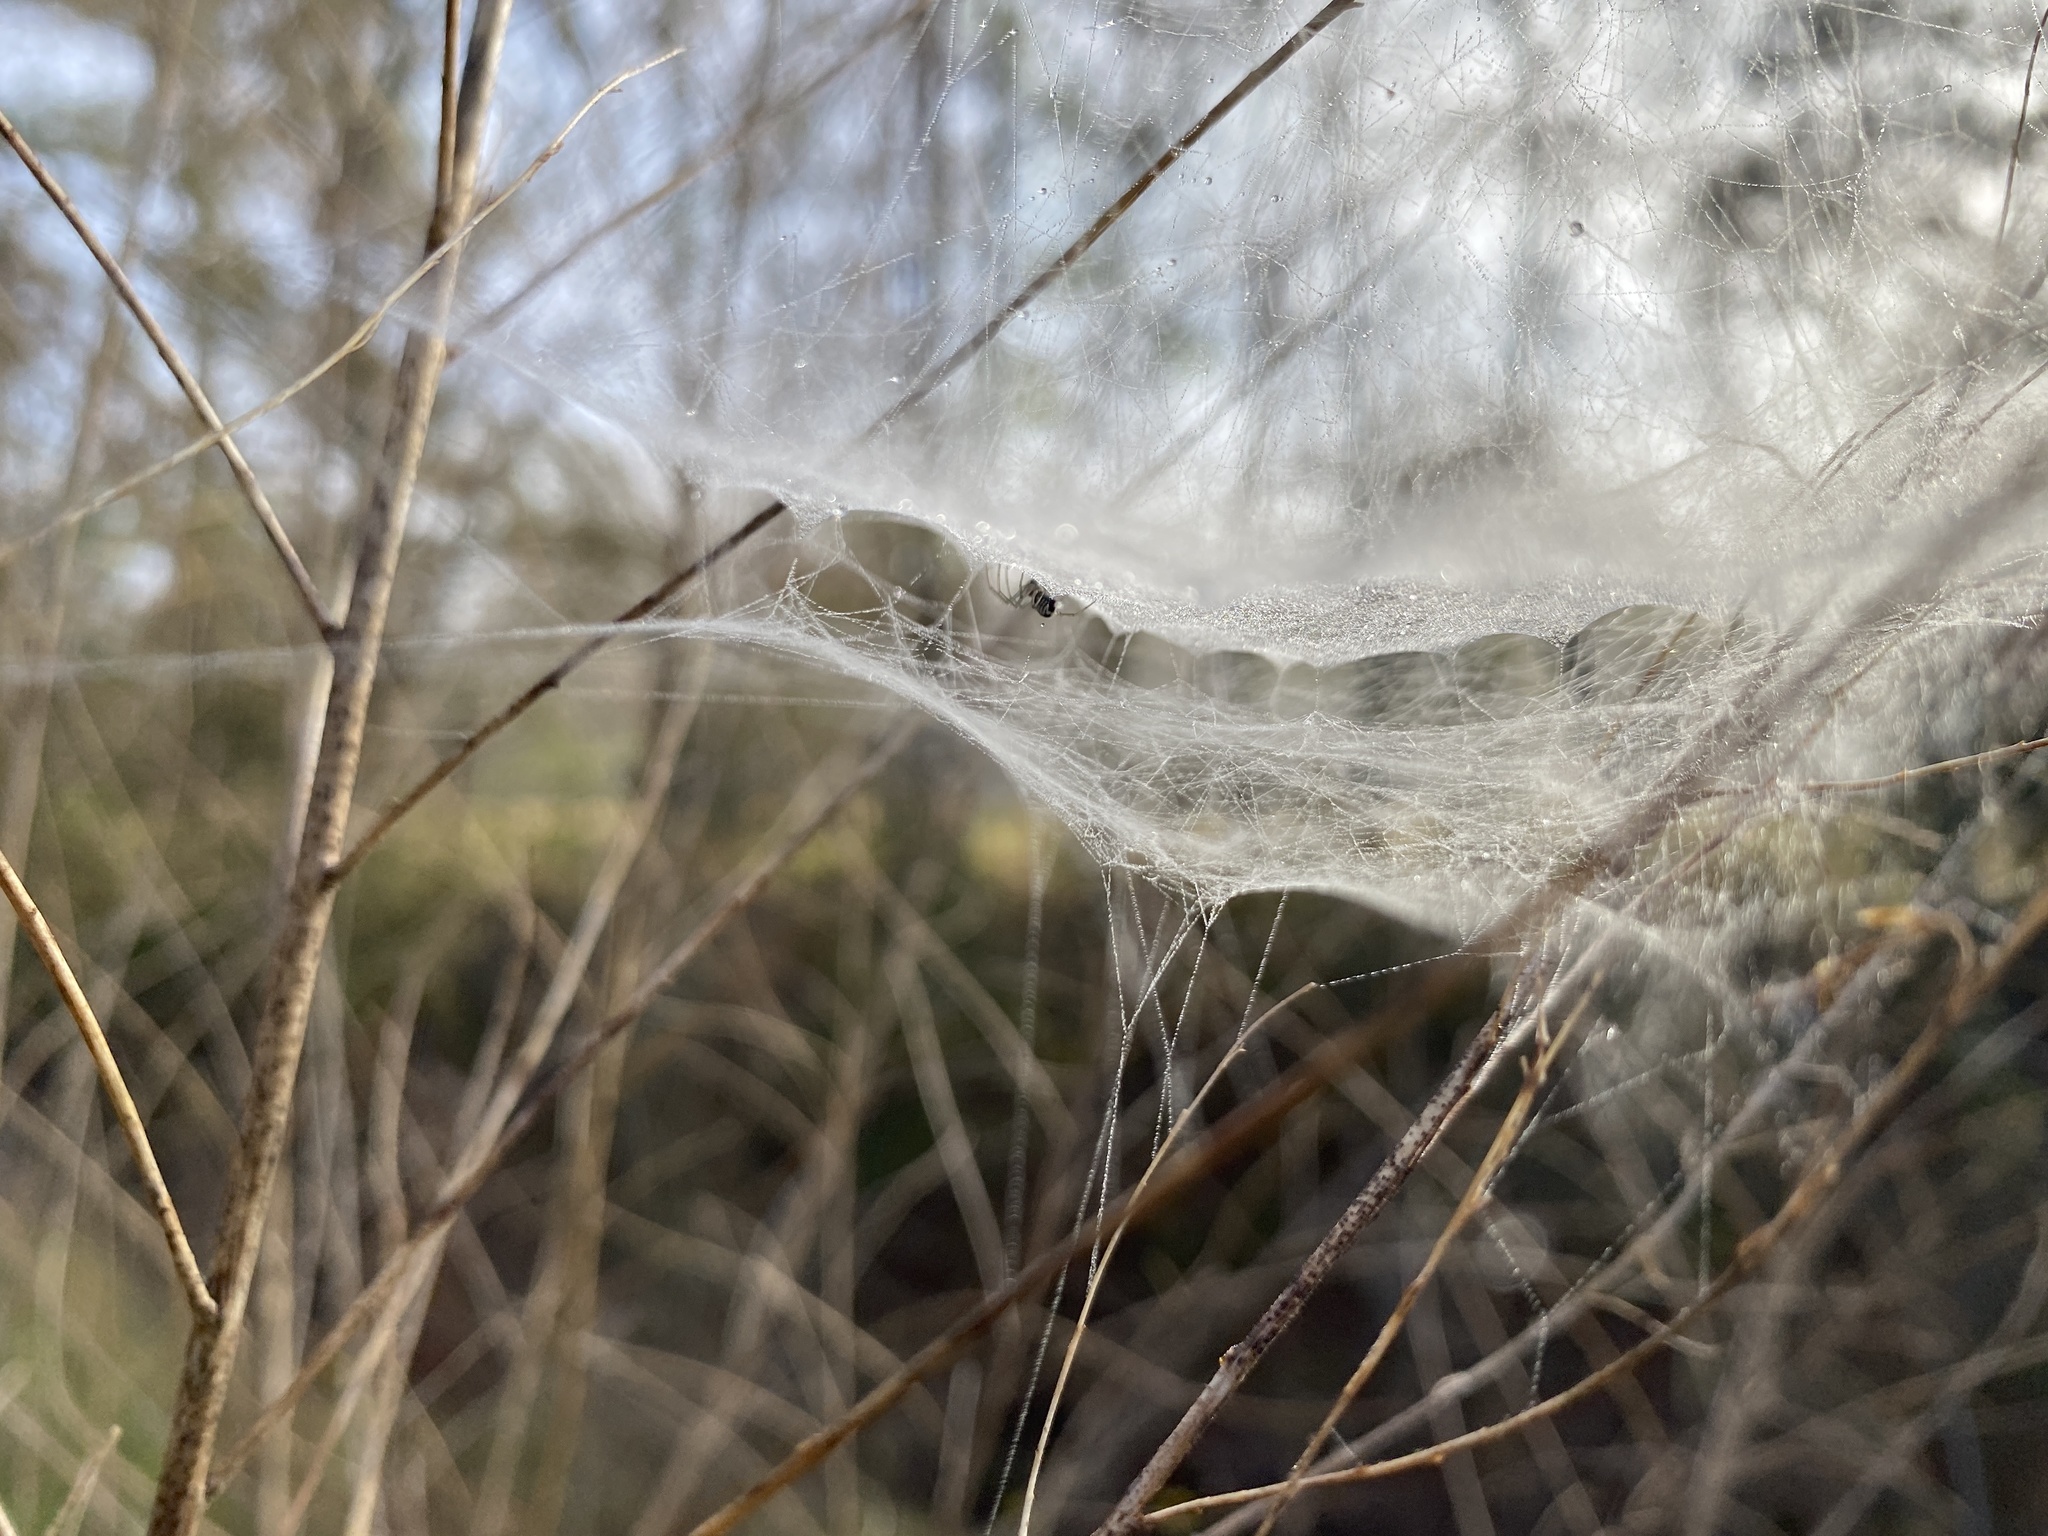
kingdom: Animalia
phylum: Arthropoda
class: Arachnida
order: Araneae
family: Linyphiidae
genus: Frontinella
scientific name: Frontinella pyramitela
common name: Bowl-and-doily spider
